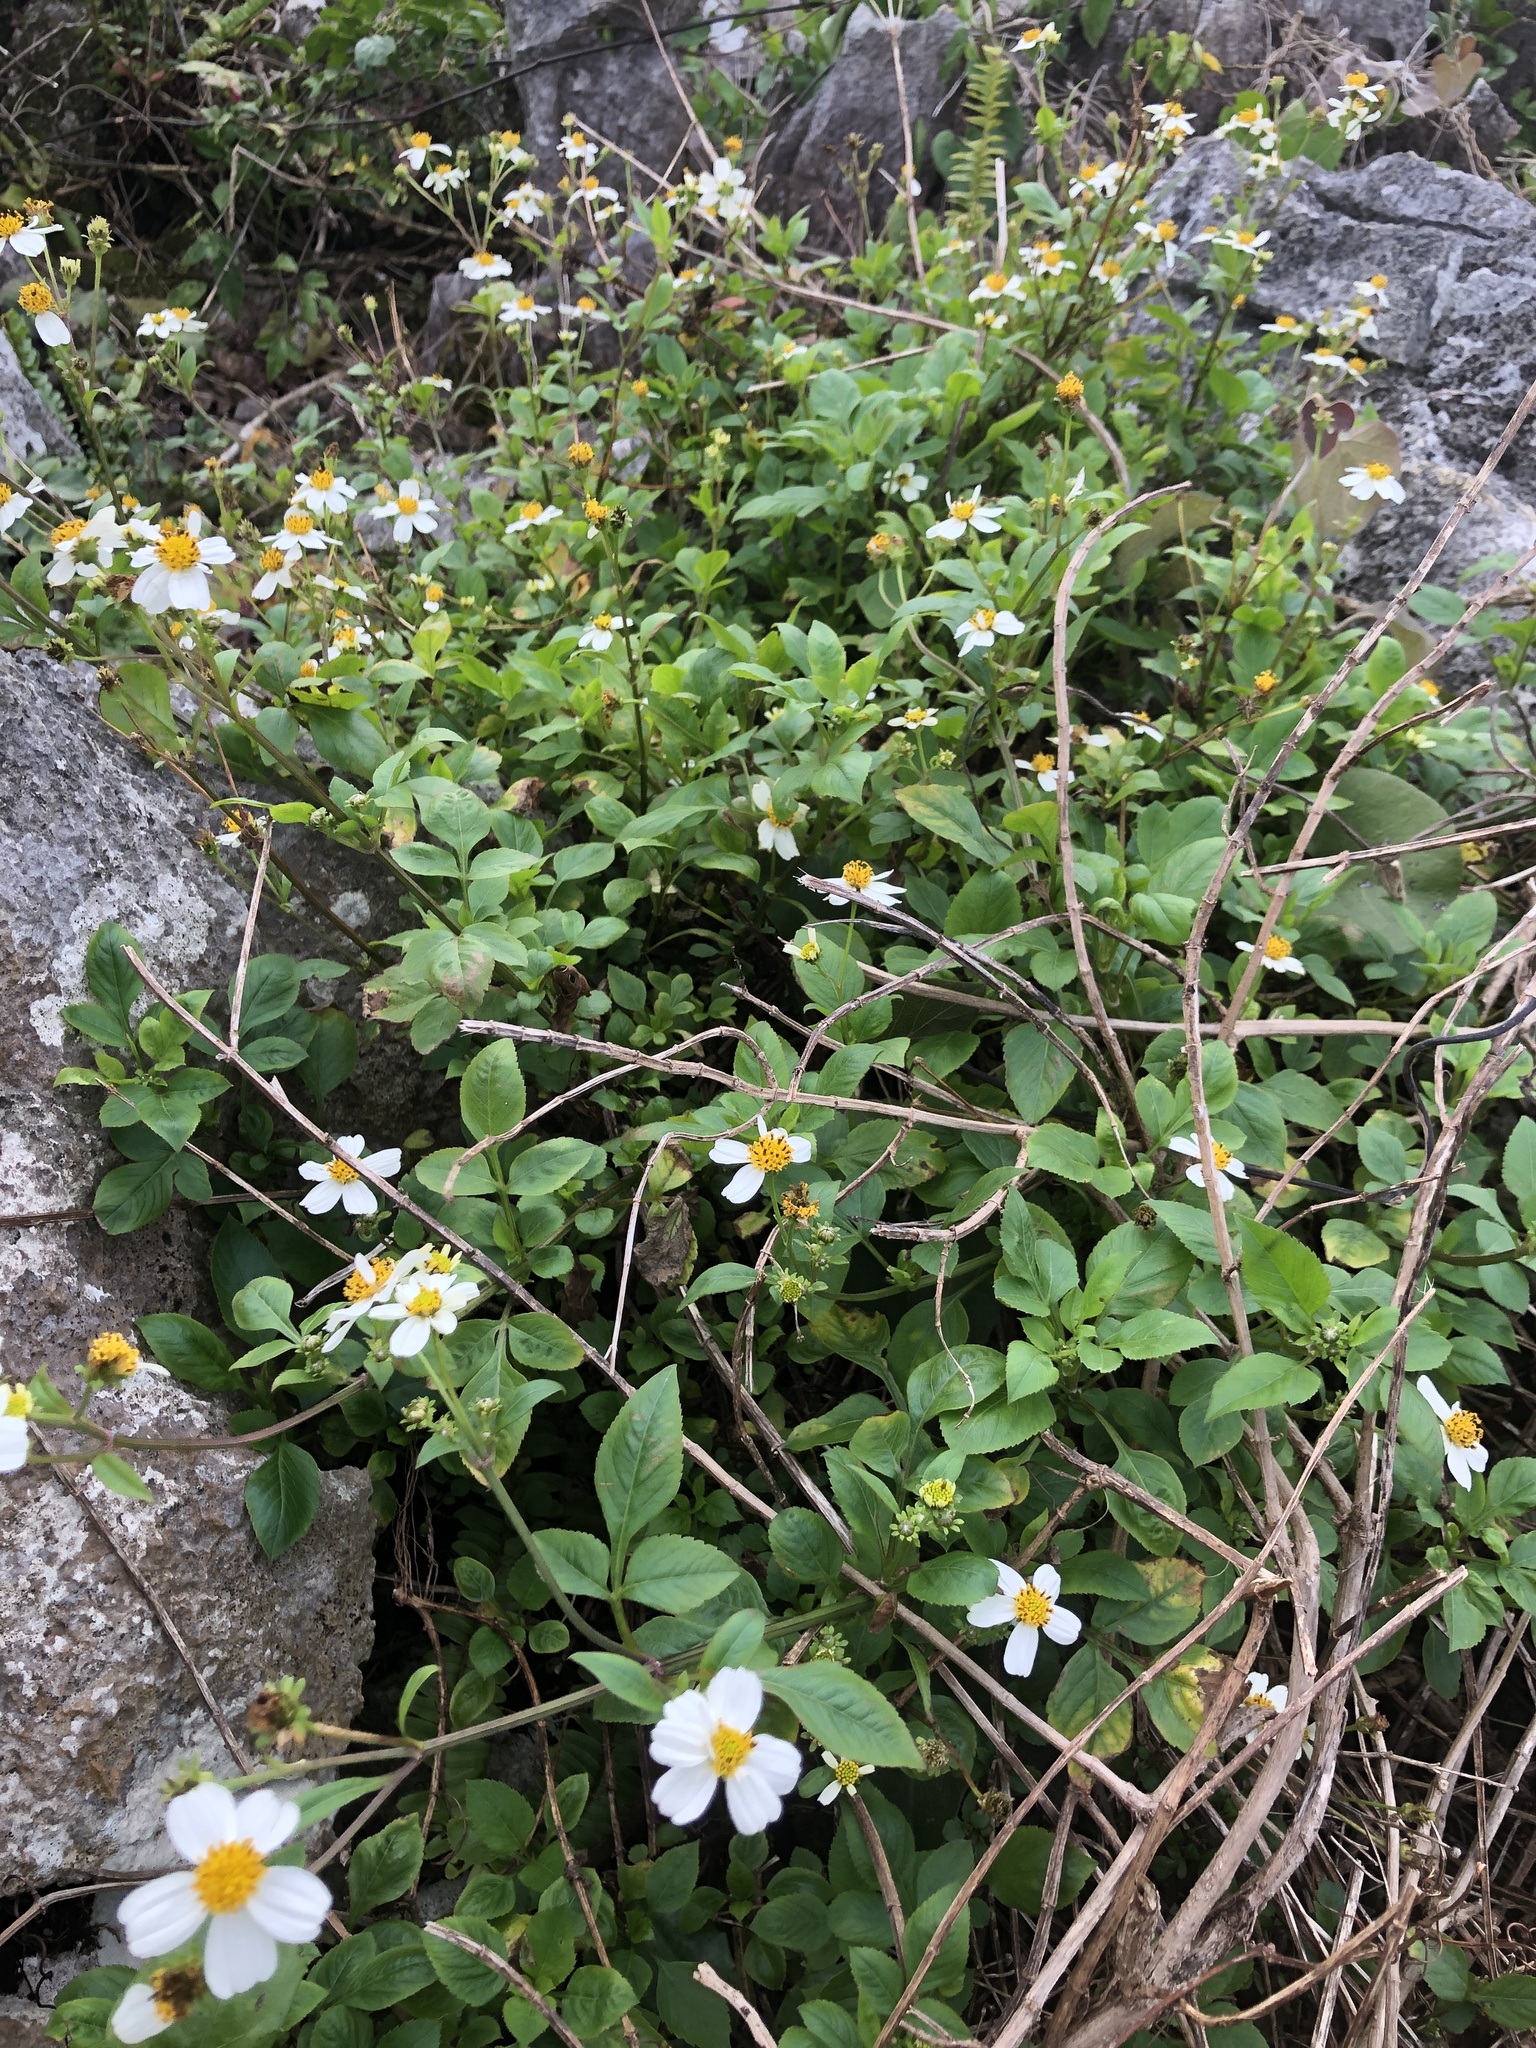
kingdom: Plantae
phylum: Tracheophyta
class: Magnoliopsida
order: Asterales
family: Asteraceae
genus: Bidens
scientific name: Bidens pilosa
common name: Black-jack
